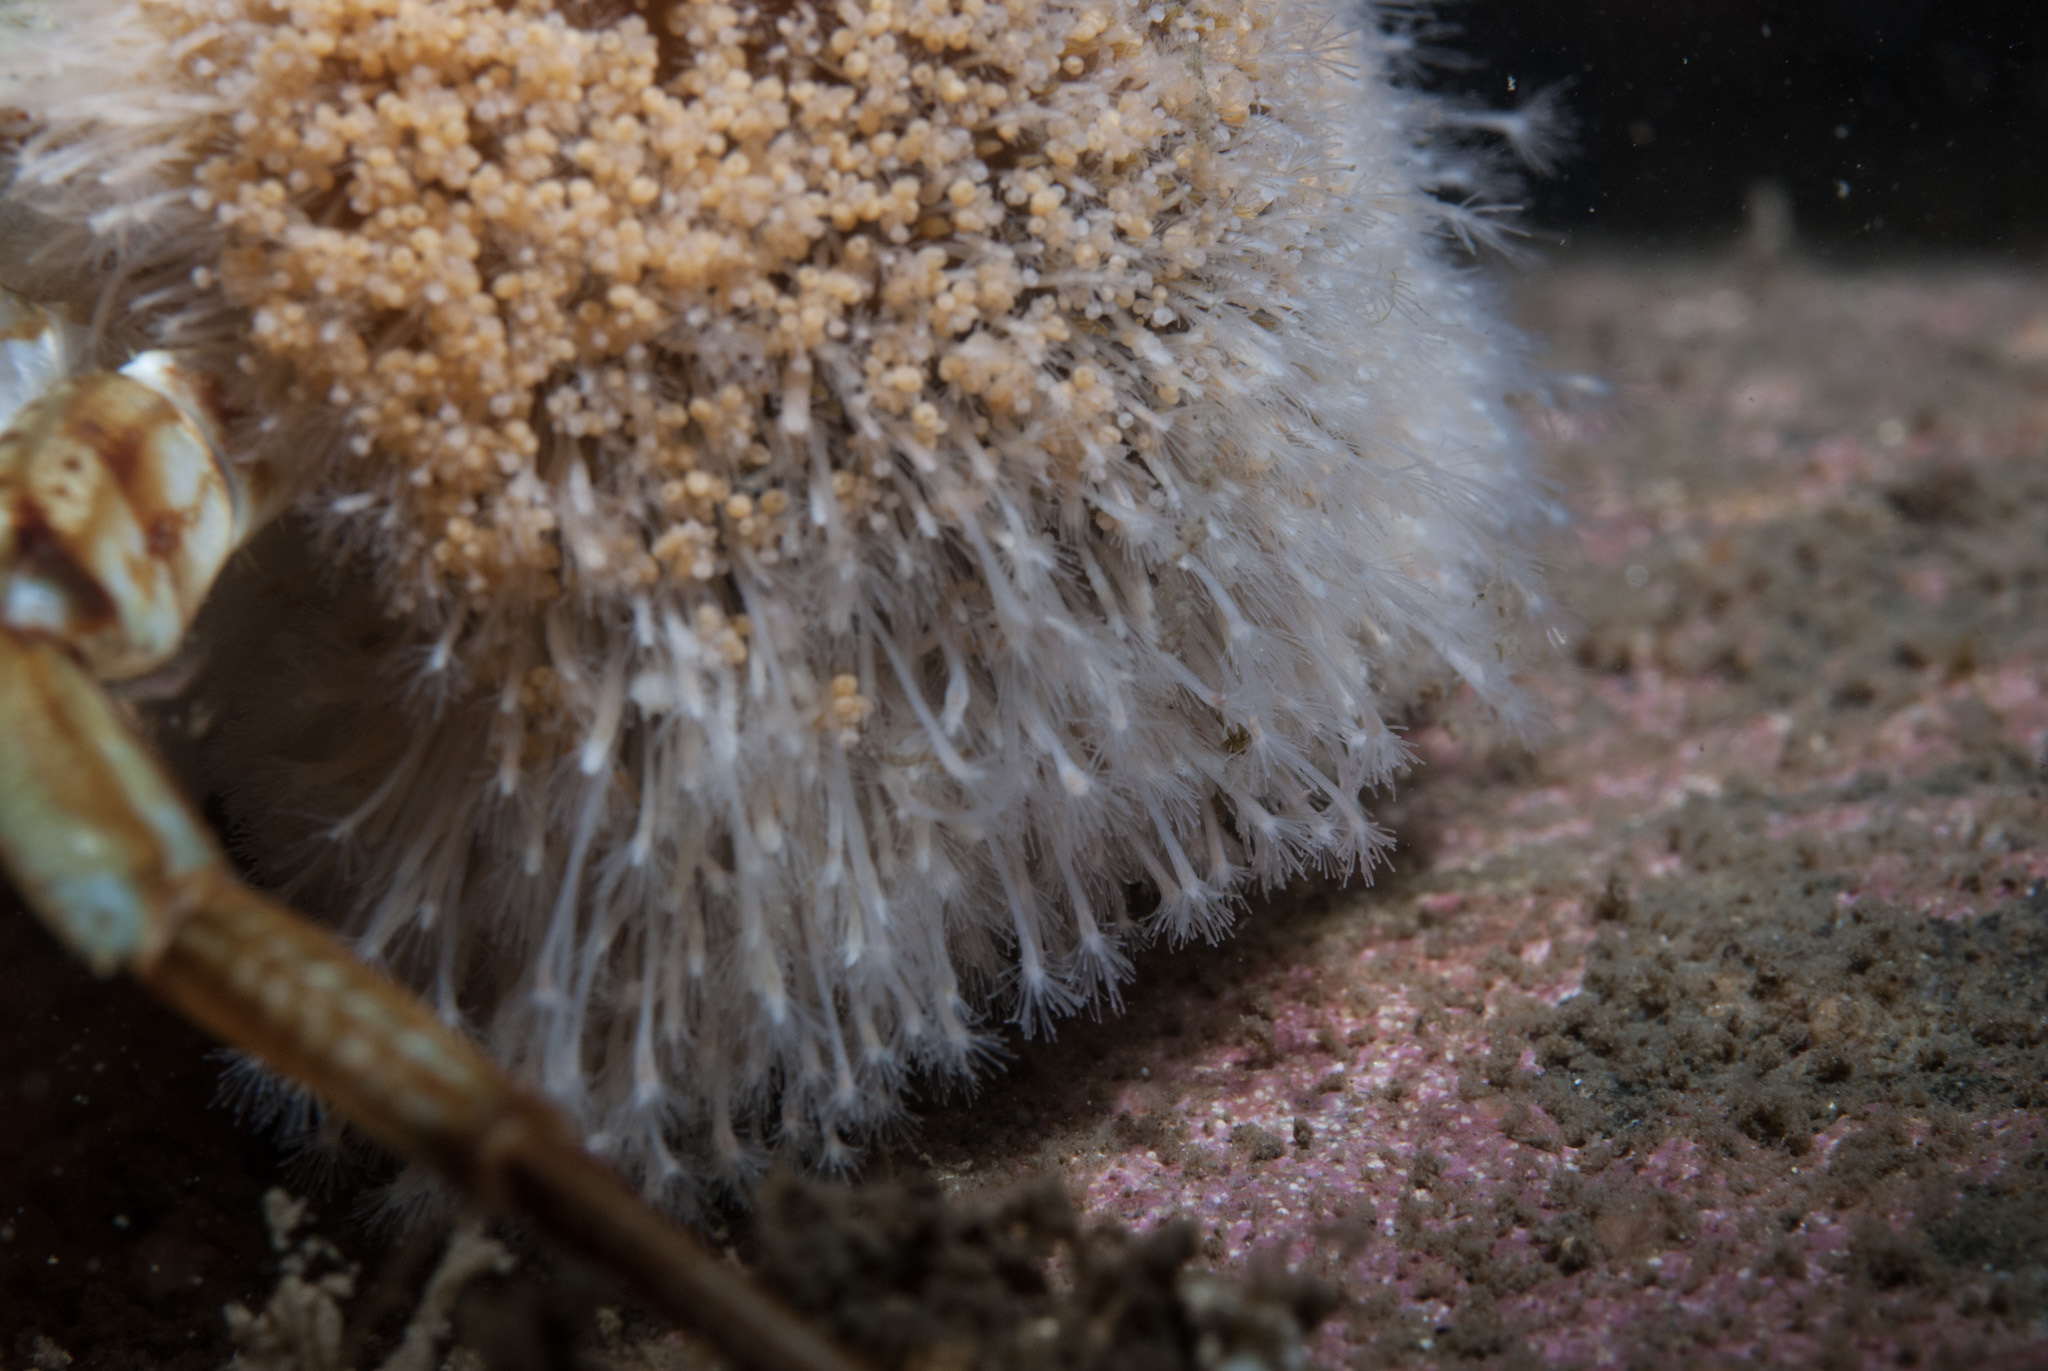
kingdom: Animalia
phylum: Cnidaria
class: Hydrozoa
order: Anthoathecata
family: Hydractiniidae
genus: Hydractinia
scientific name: Hydractinia echinata
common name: Rough hydroid
